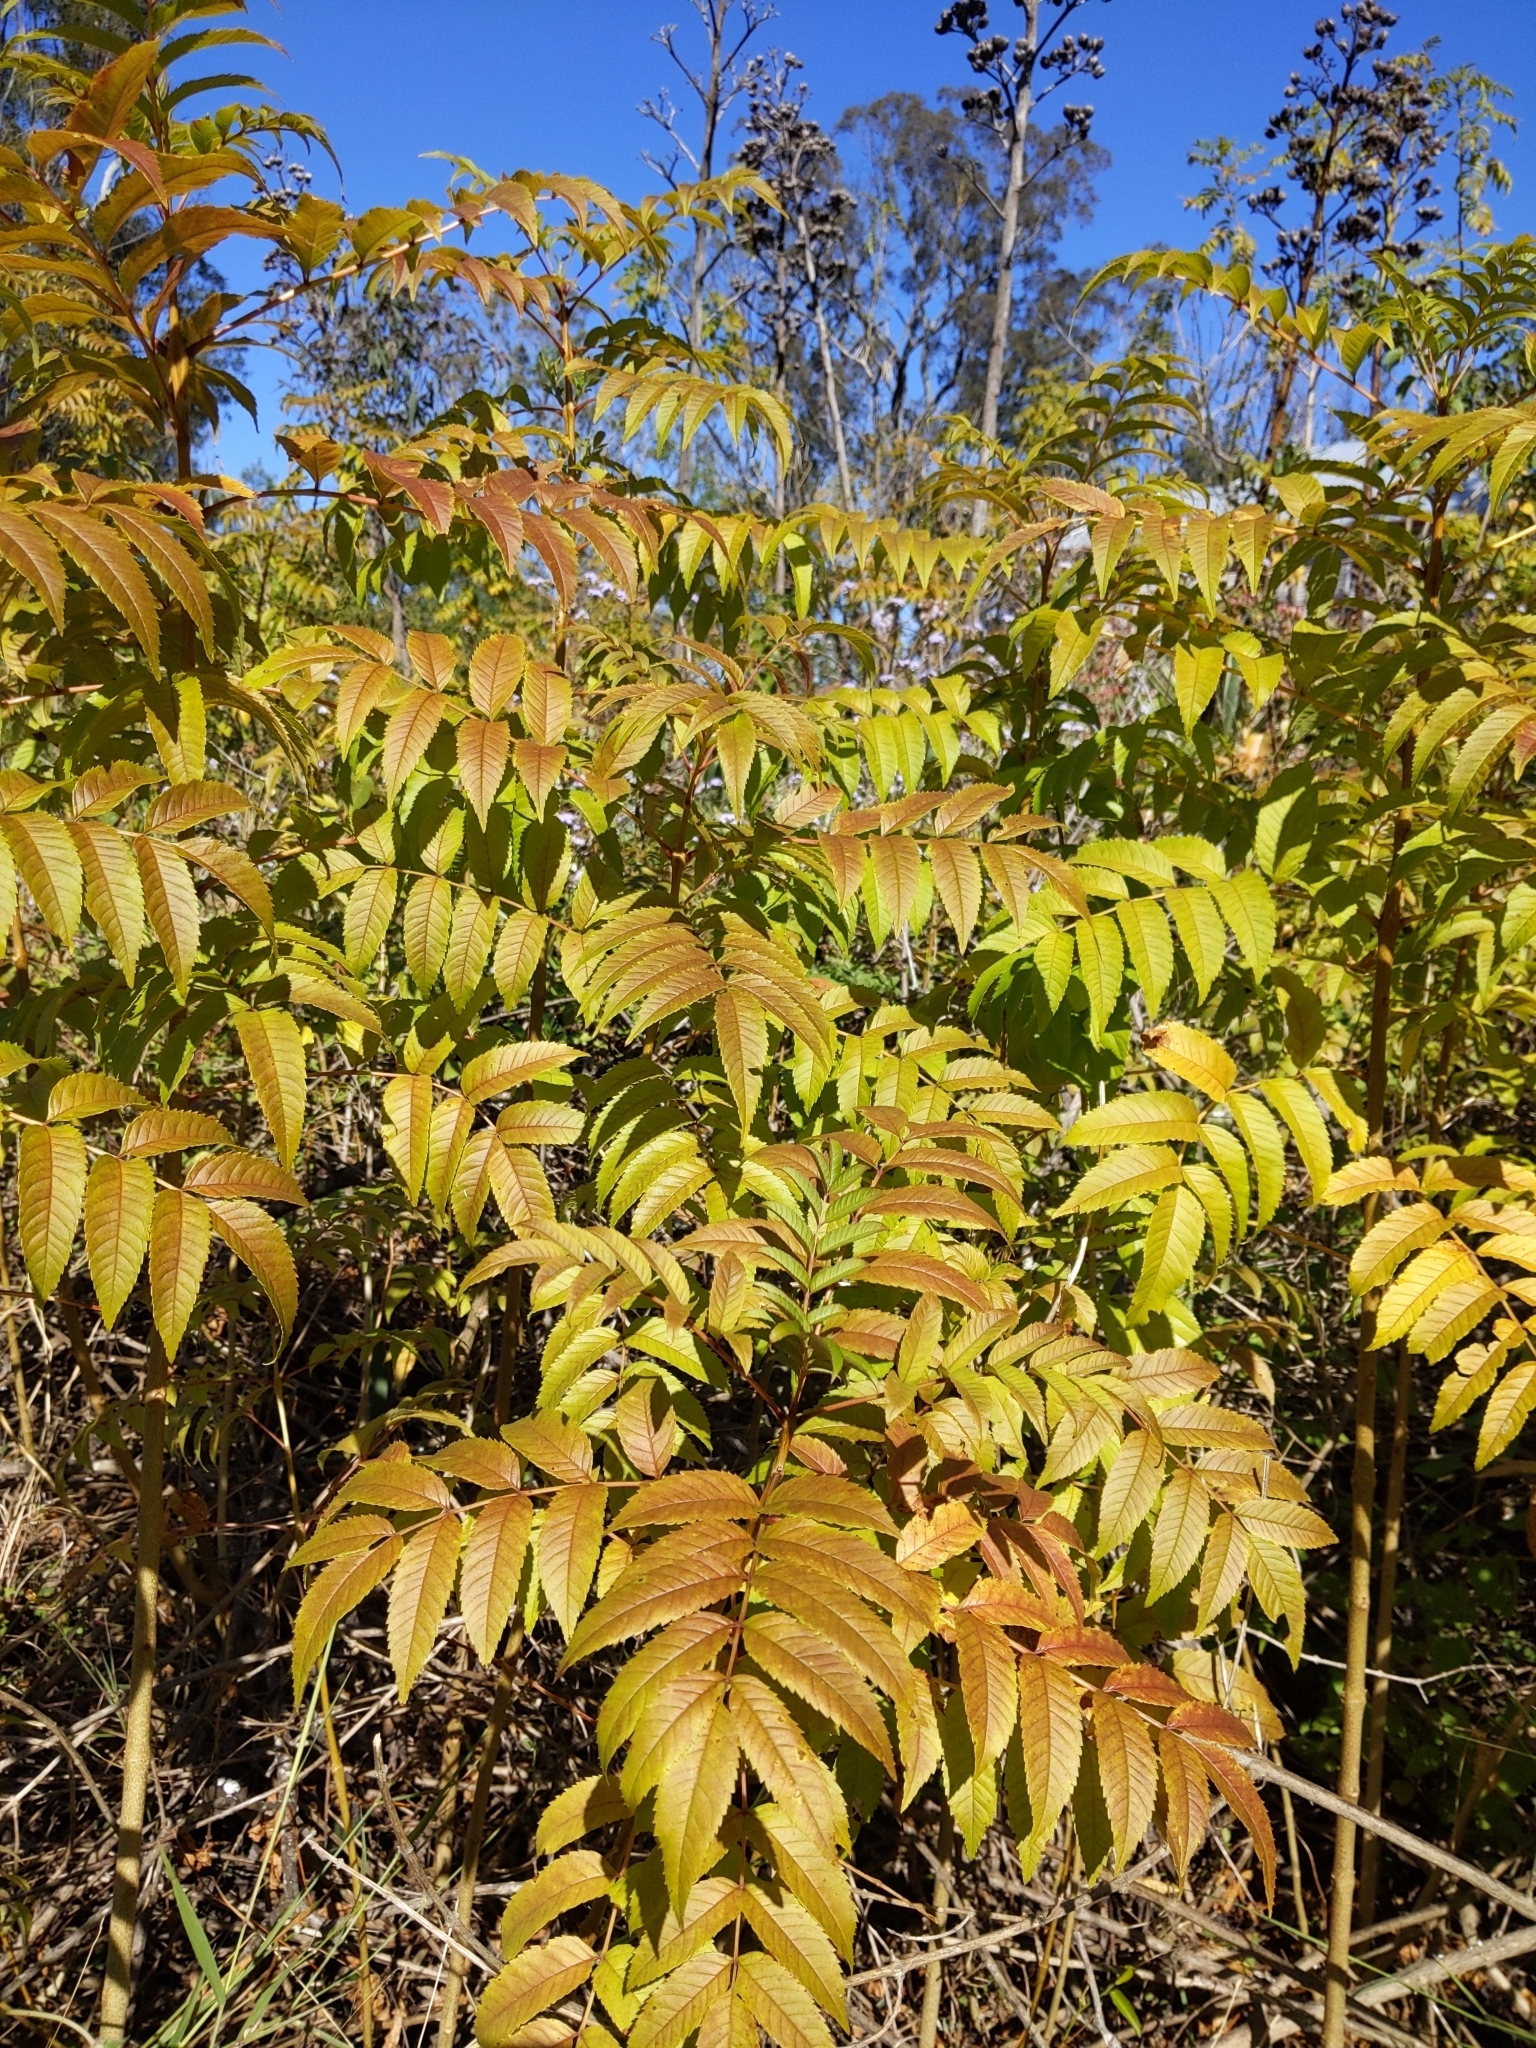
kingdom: Plantae
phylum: Tracheophyta
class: Magnoliopsida
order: Lamiales
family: Bignoniaceae
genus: Tecoma
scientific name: Tecoma stans
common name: Yellow trumpetbush
